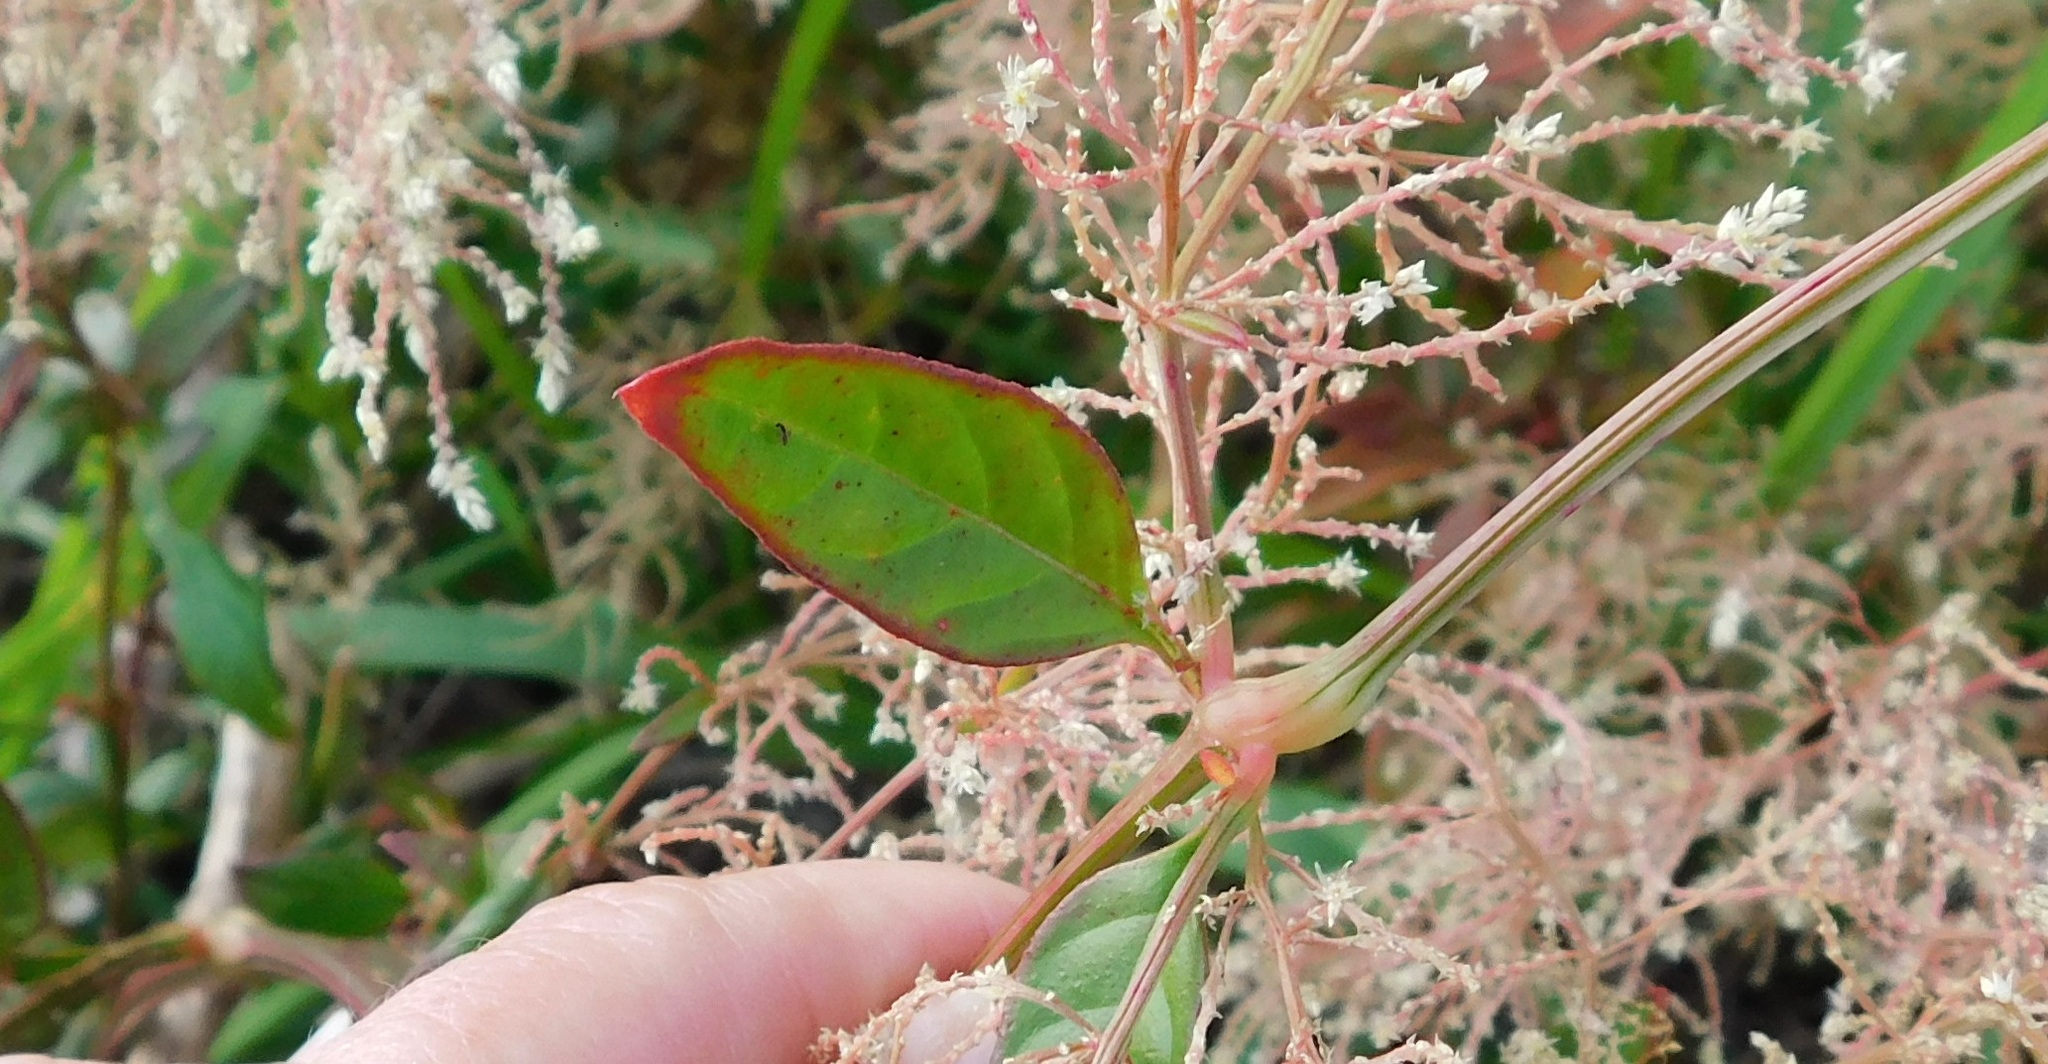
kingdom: Plantae
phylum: Tracheophyta
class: Magnoliopsida
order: Caryophyllales
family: Amaranthaceae
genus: Iresine
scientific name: Iresine diffusa
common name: Juba's-bush
